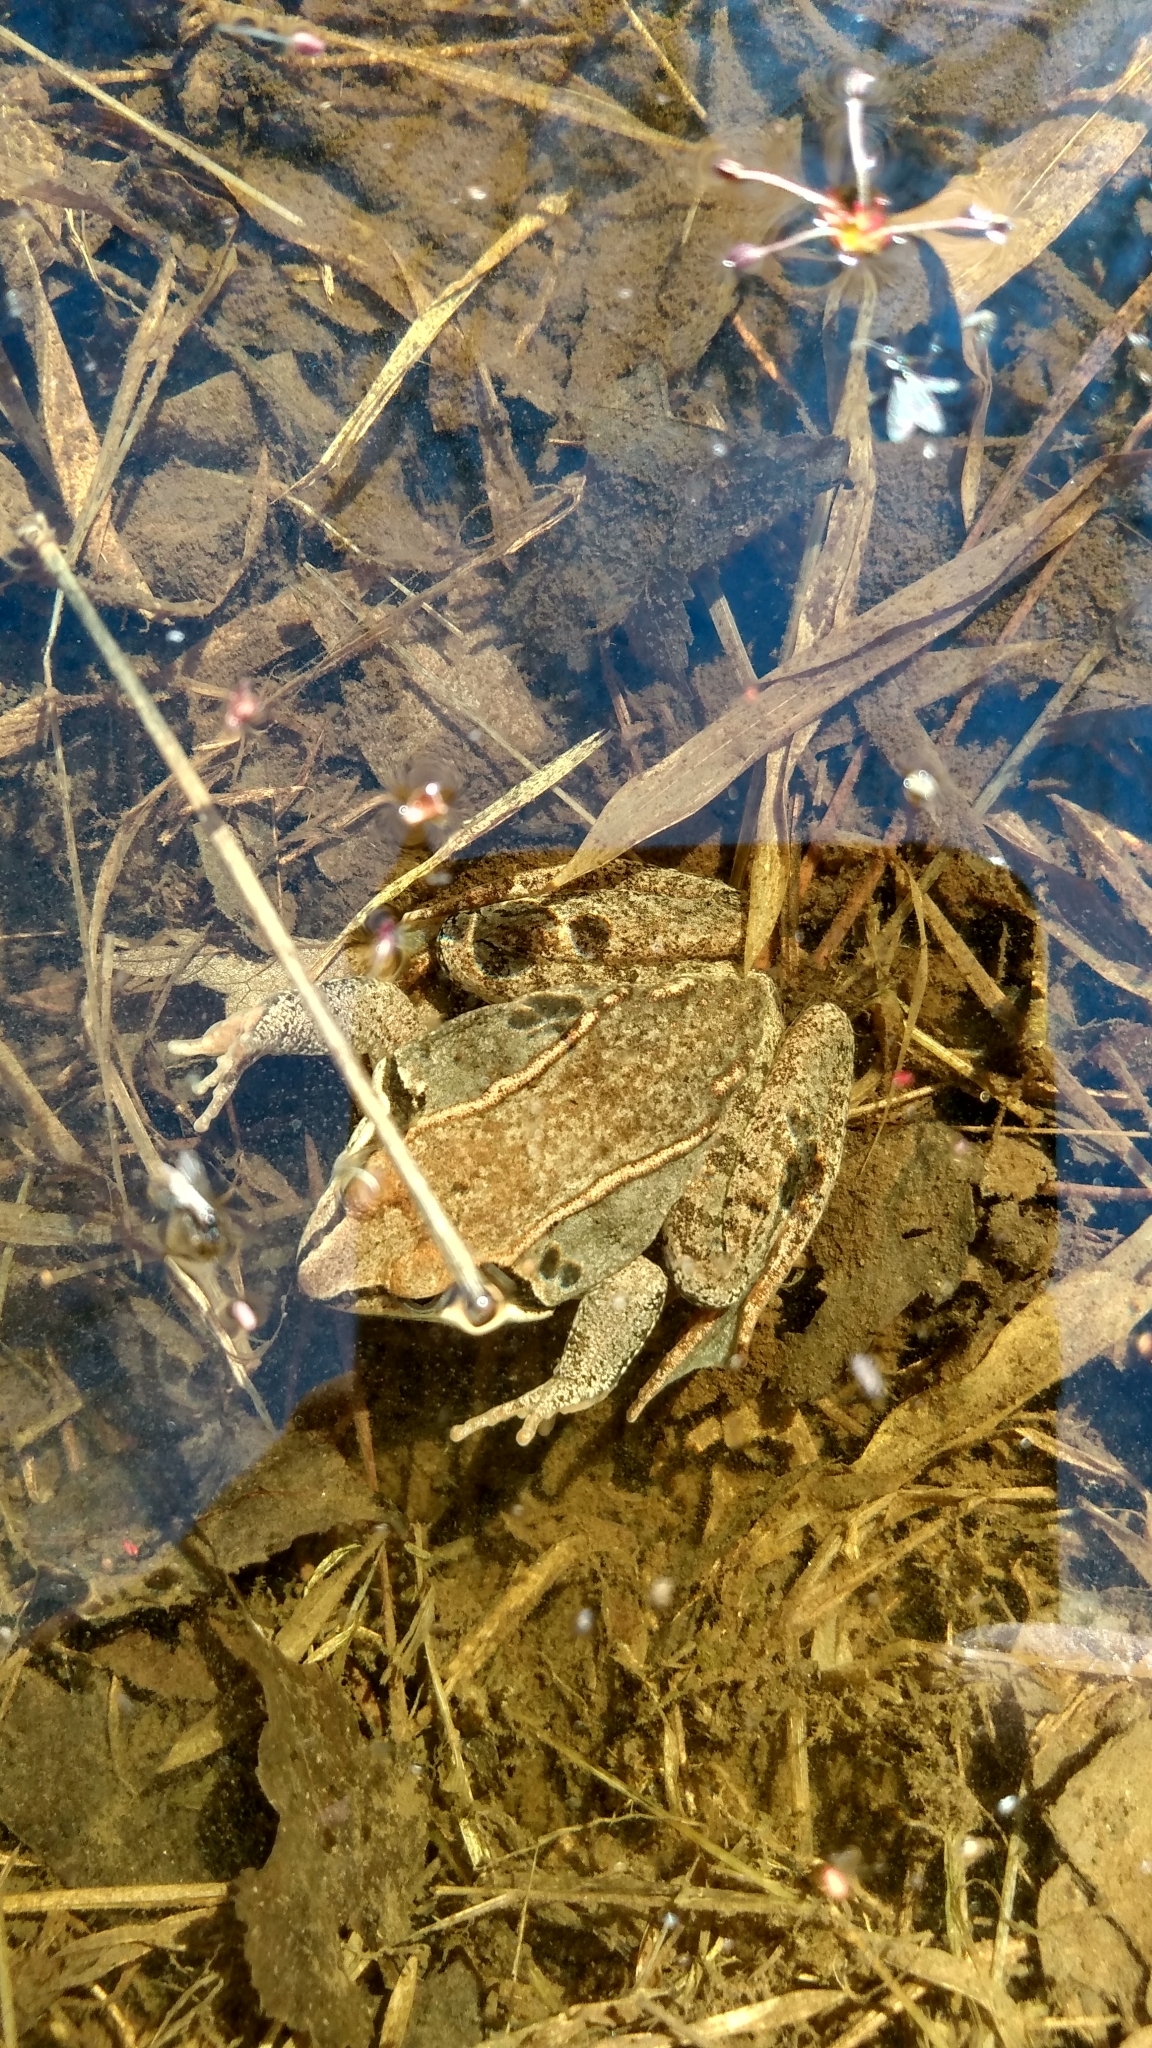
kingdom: Animalia
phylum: Chordata
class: Amphibia
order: Anura
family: Ranidae
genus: Lithobates
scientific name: Lithobates sylvaticus
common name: Wood frog
